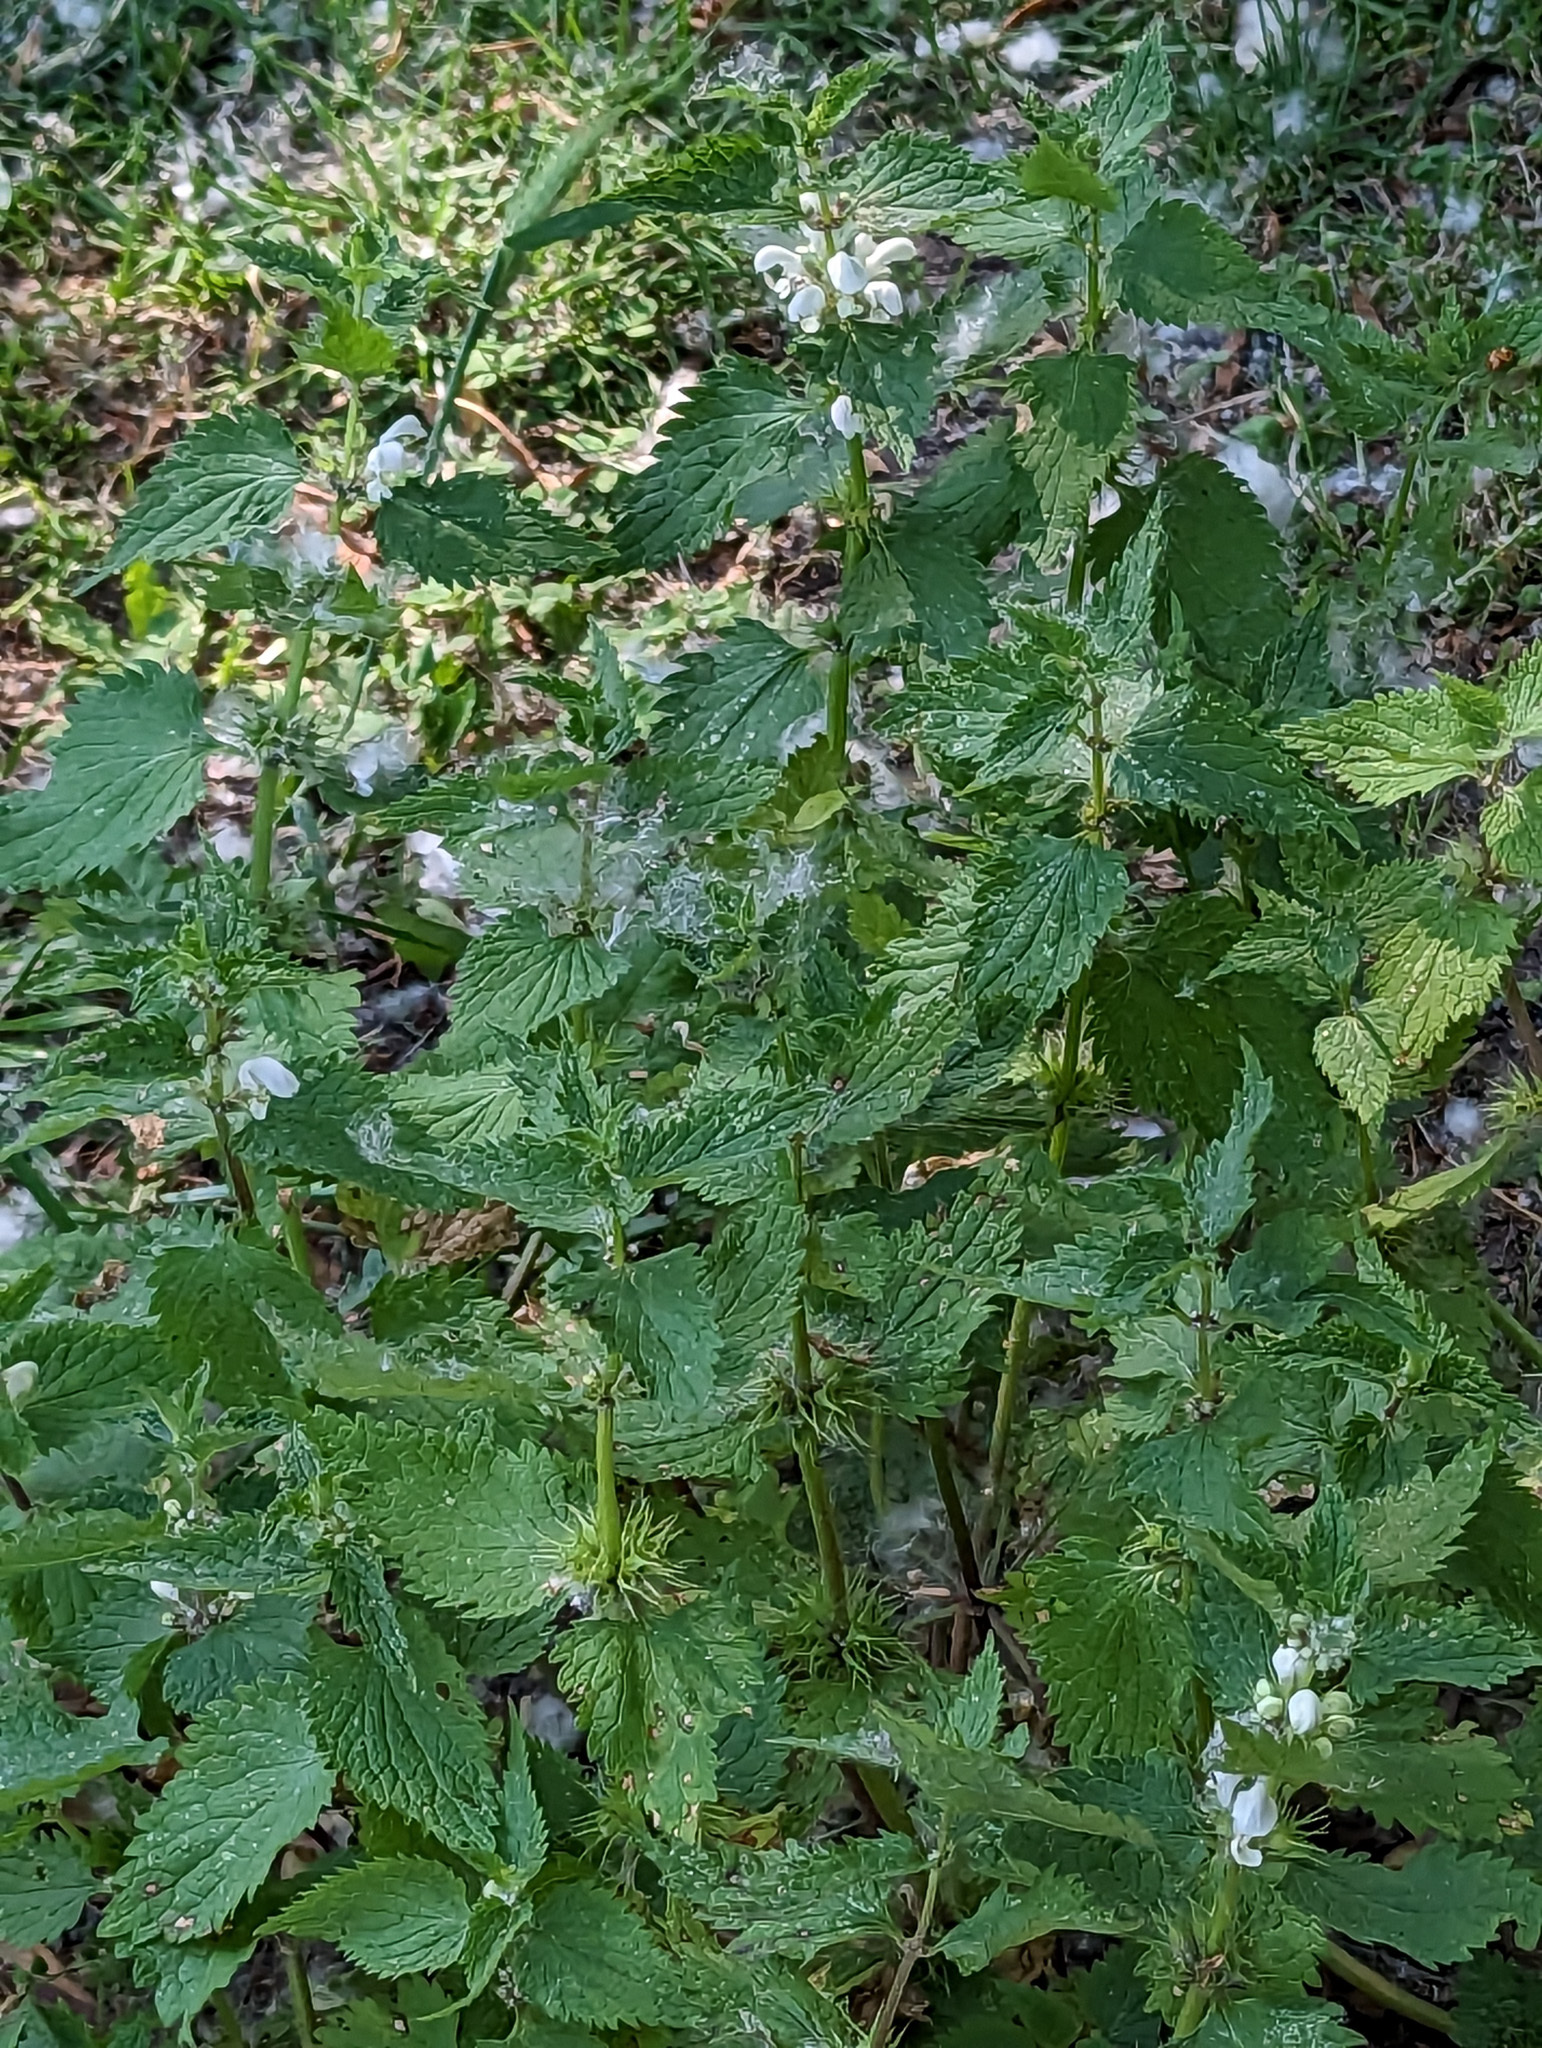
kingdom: Plantae
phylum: Tracheophyta
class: Magnoliopsida
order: Lamiales
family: Lamiaceae
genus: Lamium
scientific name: Lamium album
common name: White dead-nettle
